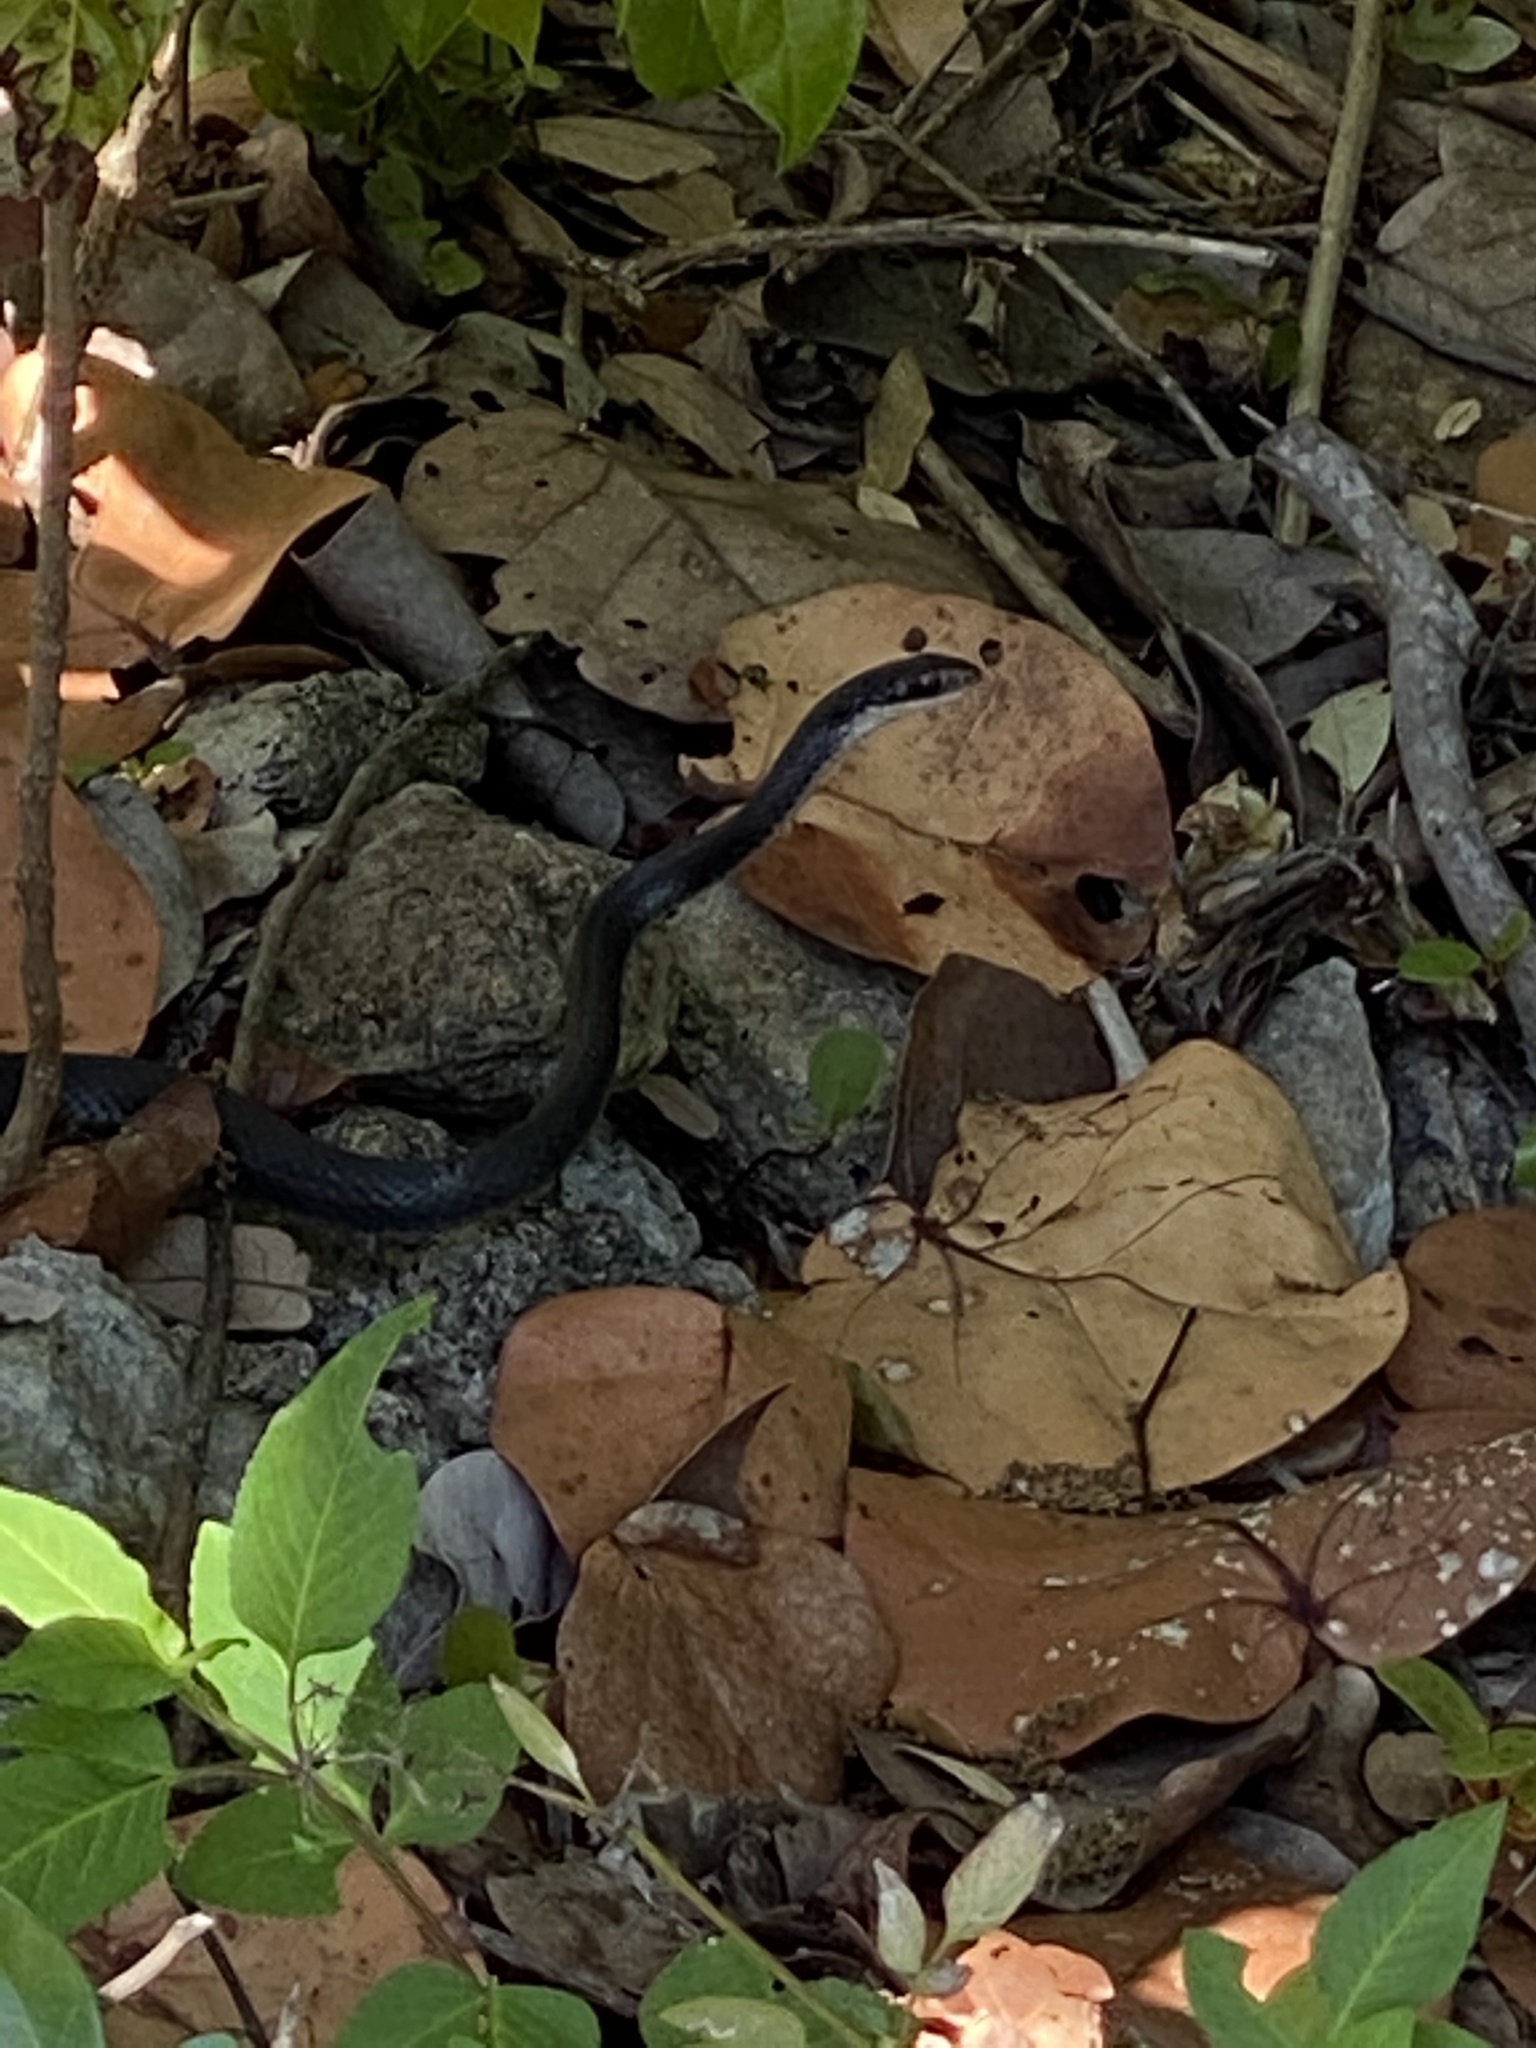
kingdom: Animalia
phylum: Chordata
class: Squamata
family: Colubridae
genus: Coluber
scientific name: Coluber constrictor
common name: Eastern racer
